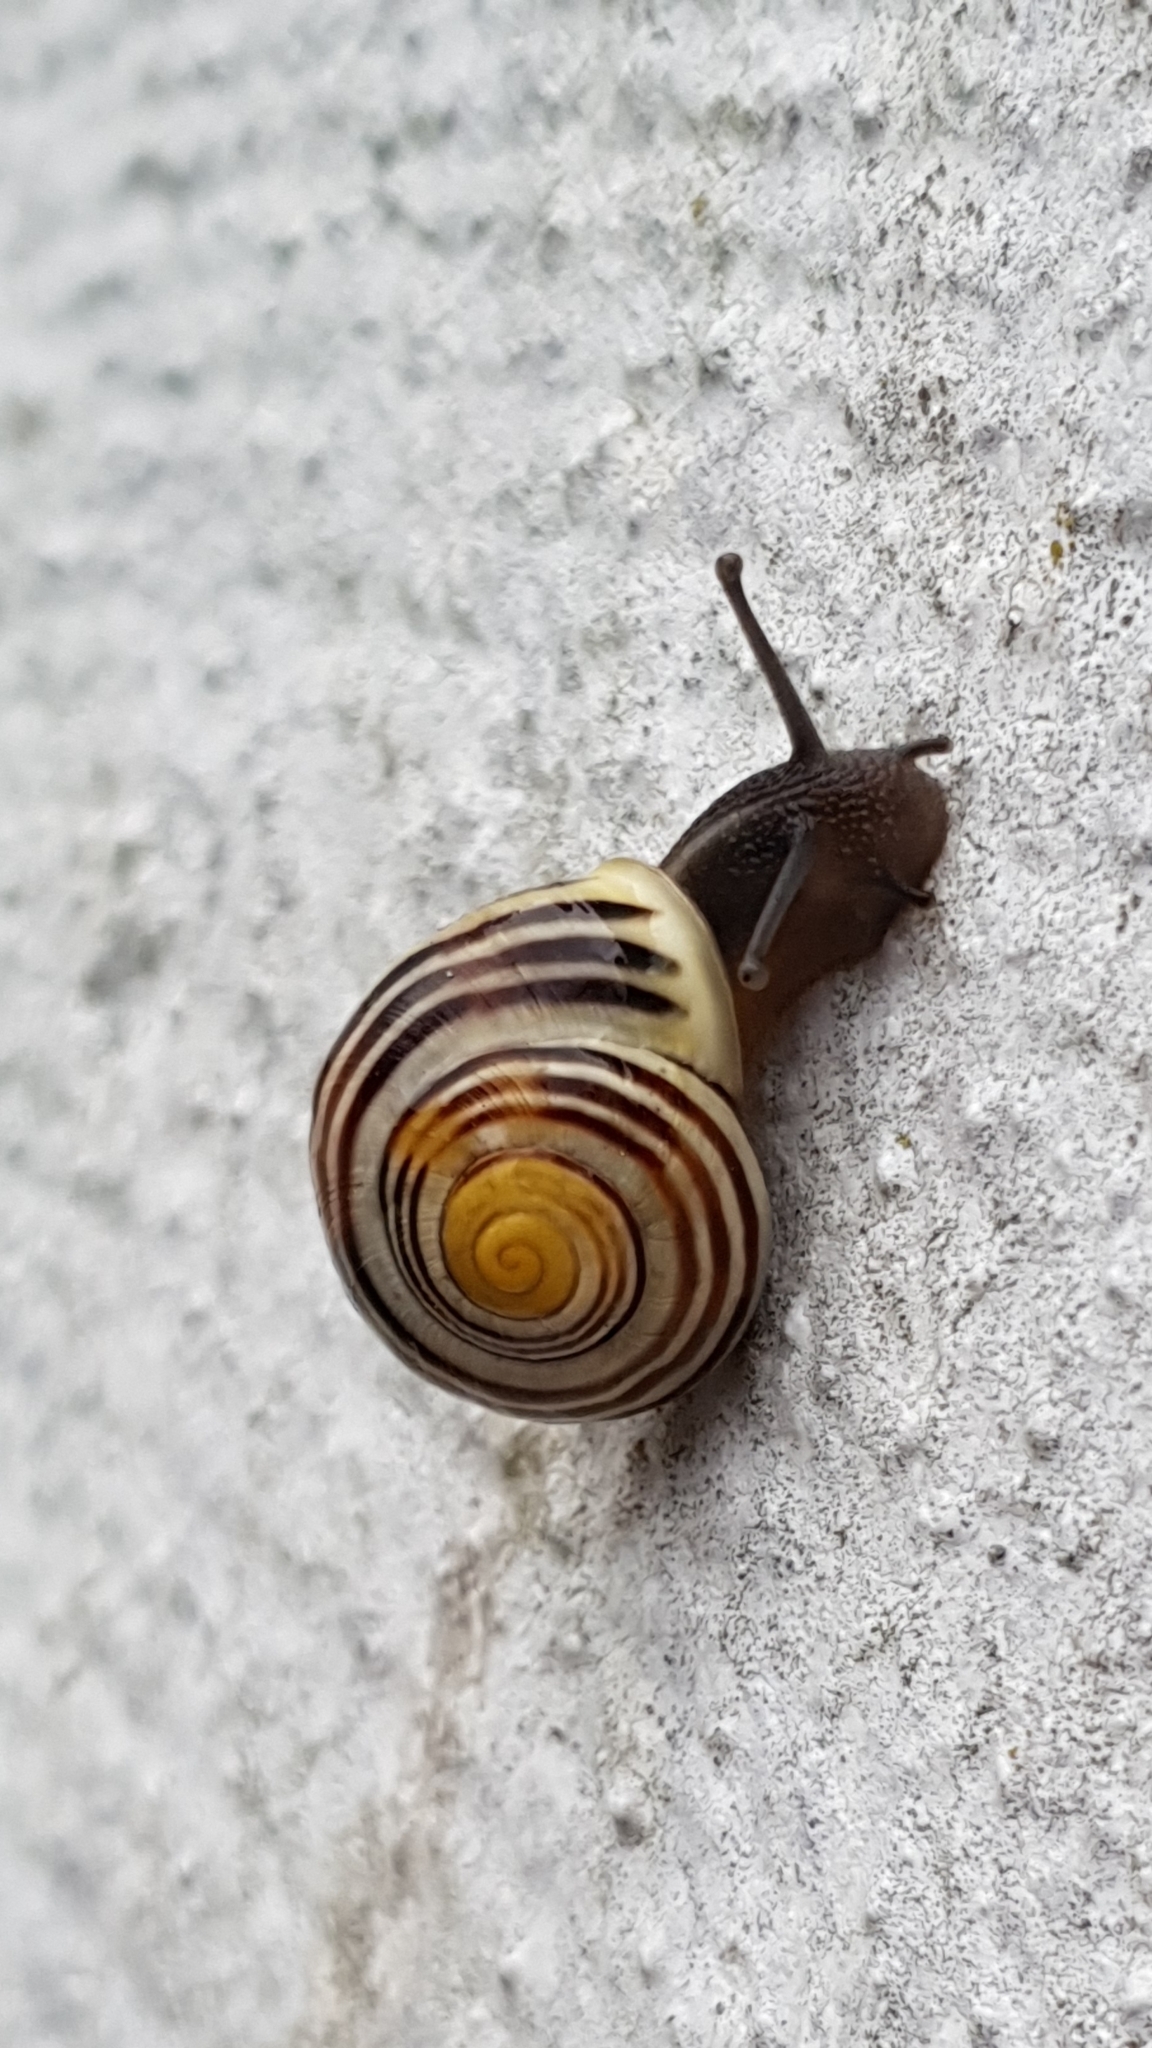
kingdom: Animalia
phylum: Mollusca
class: Gastropoda
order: Stylommatophora
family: Helicidae
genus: Cepaea
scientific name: Cepaea hortensis
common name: White-lip gardensnail
